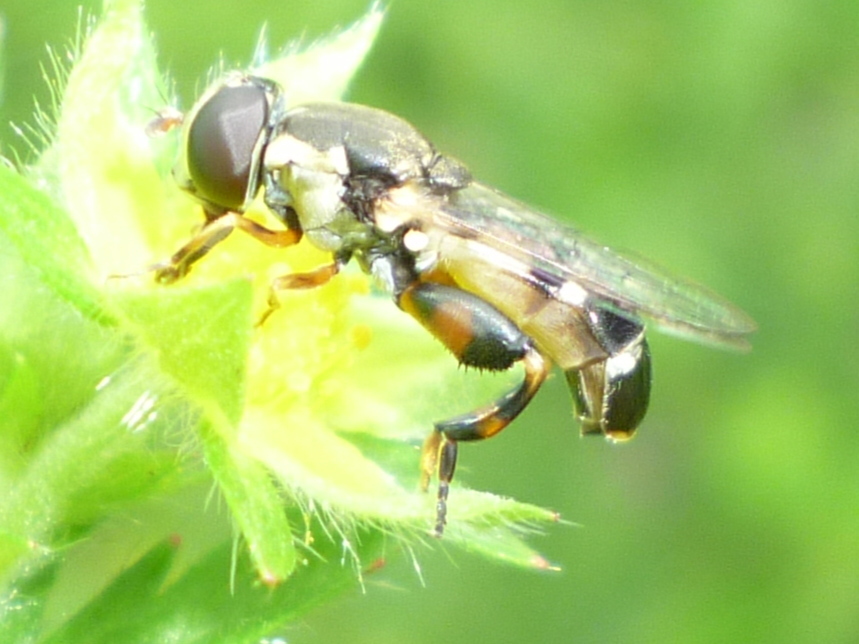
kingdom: Animalia
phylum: Arthropoda
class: Insecta
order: Diptera
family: Syrphidae
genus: Syritta
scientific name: Syritta pipiens
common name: Hover fly
